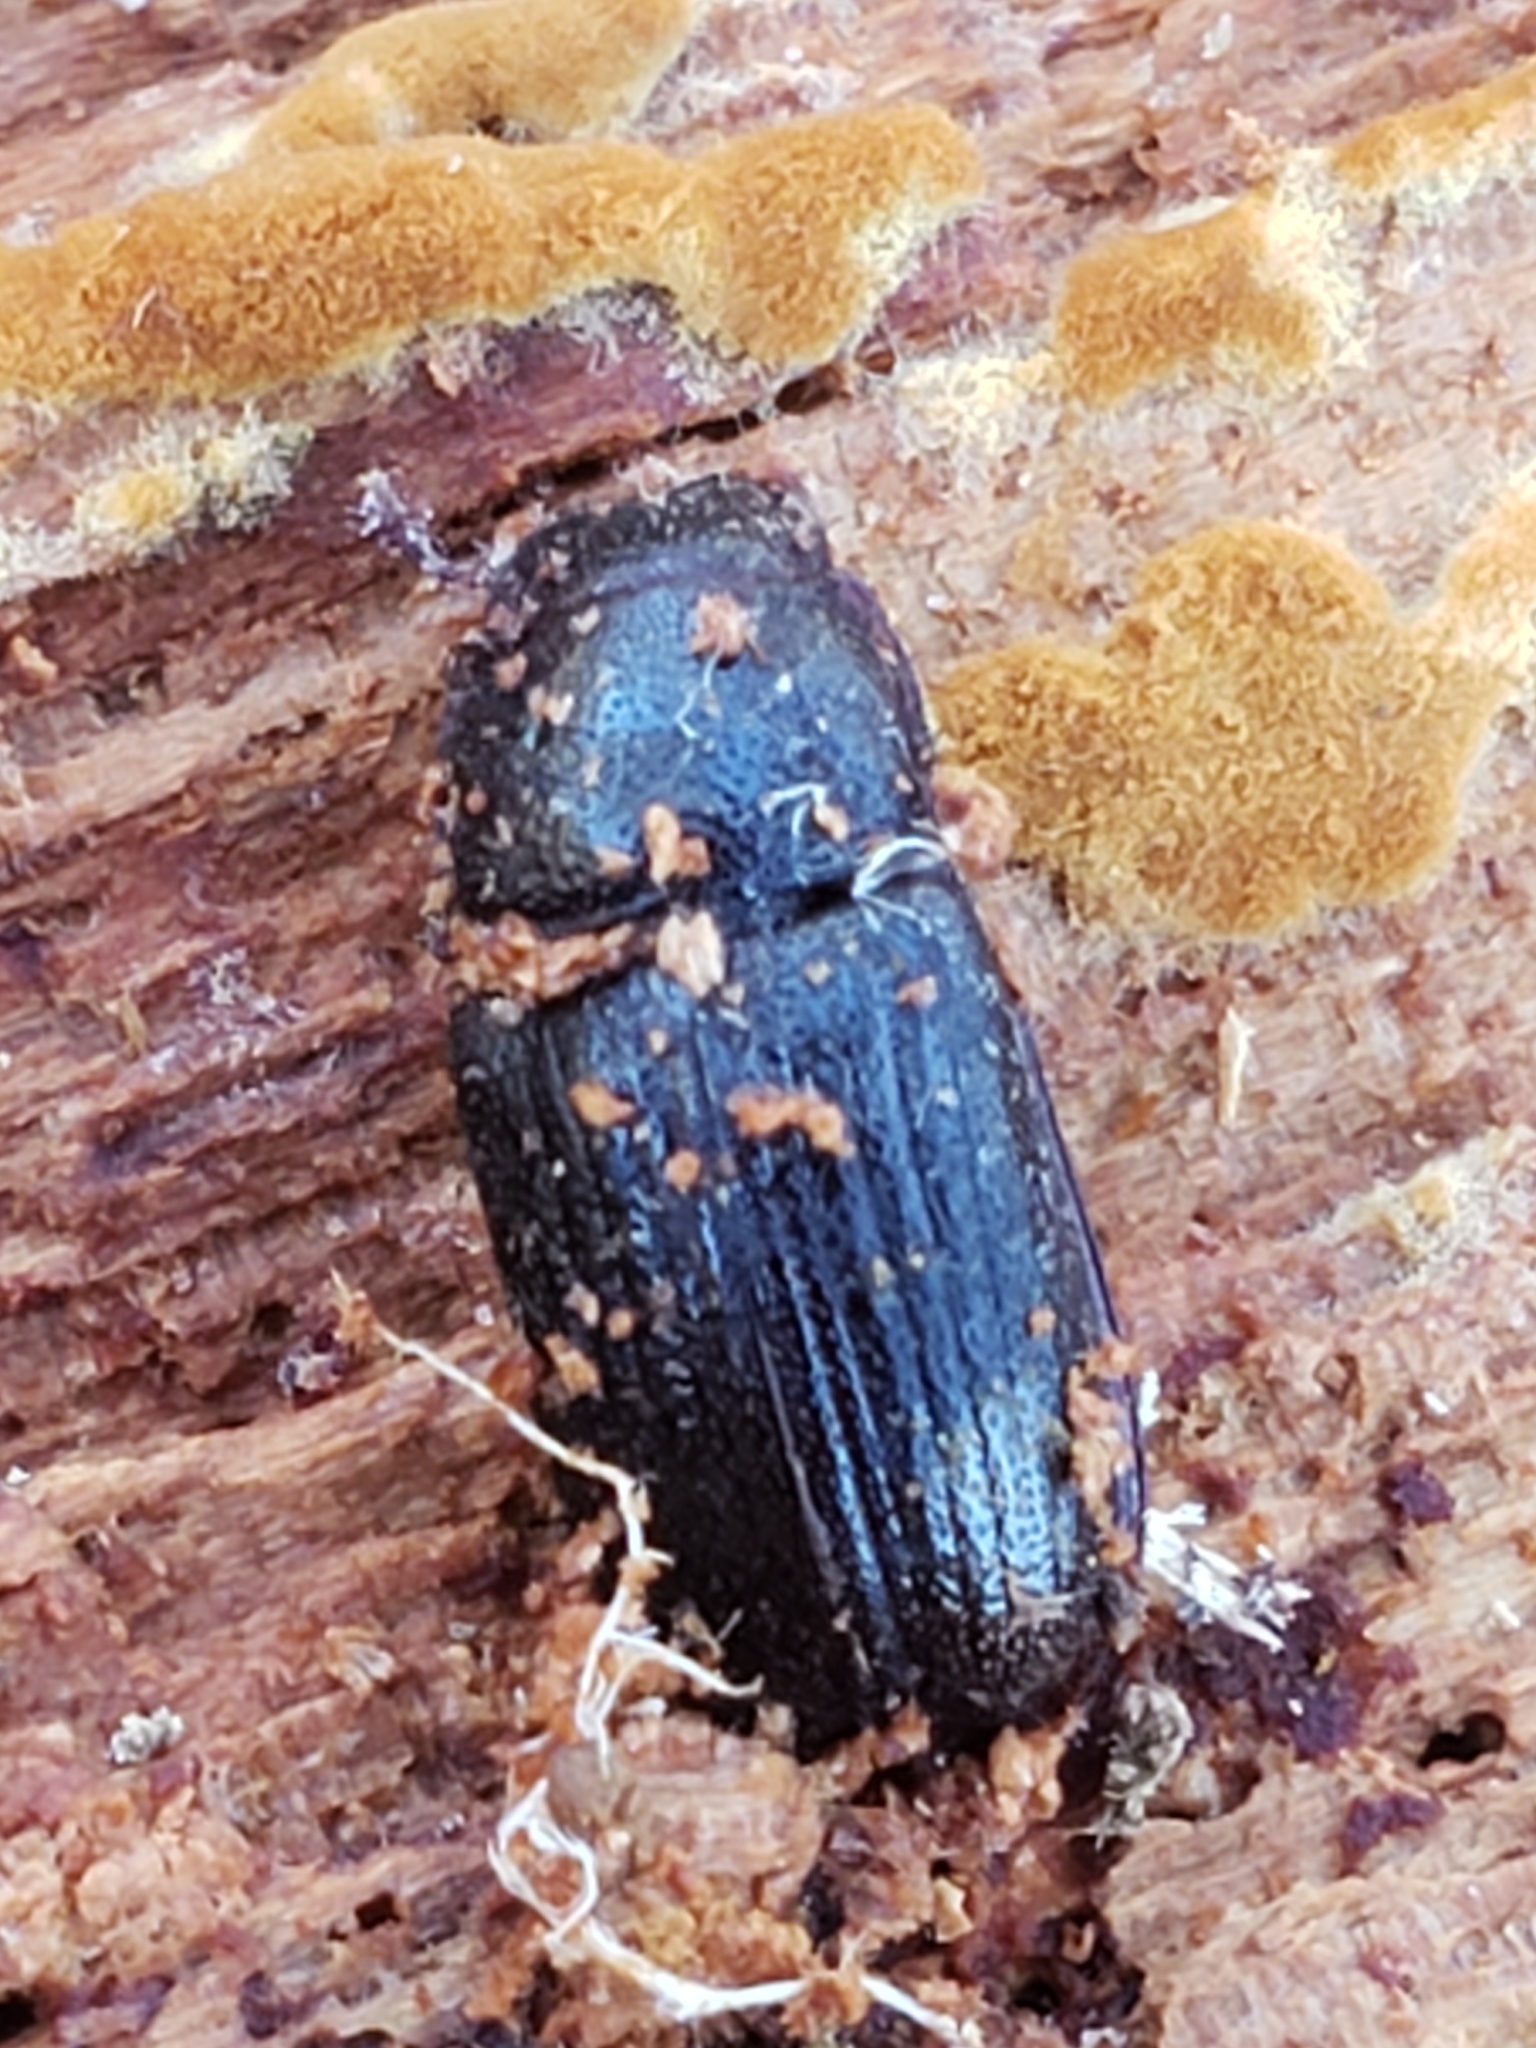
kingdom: Animalia
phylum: Arthropoda
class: Insecta
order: Coleoptera
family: Lucanidae
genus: Ceruchus
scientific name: Ceruchus piceus
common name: Red-rot decay stag beetle
